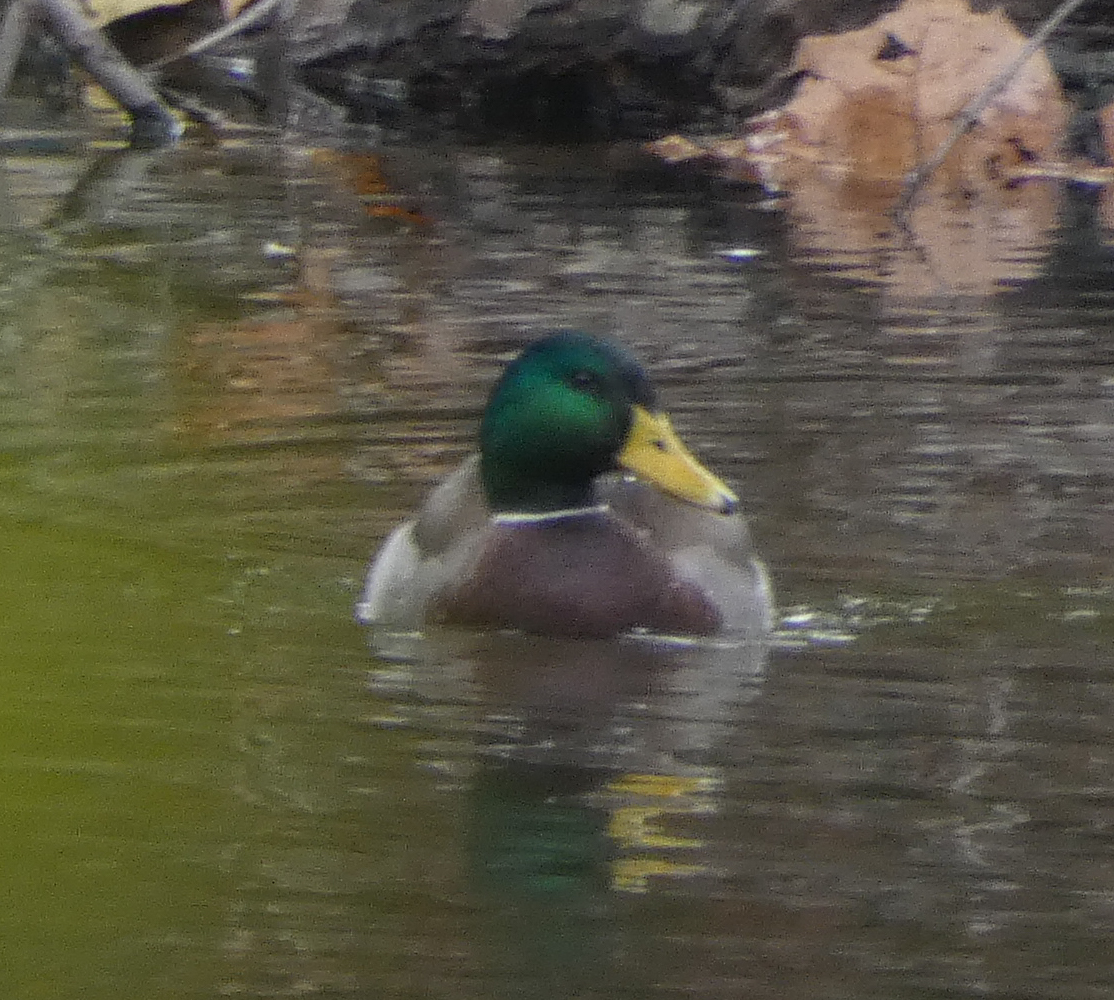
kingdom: Animalia
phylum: Chordata
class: Aves
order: Anseriformes
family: Anatidae
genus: Anas
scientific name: Anas platyrhynchos
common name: Mallard
